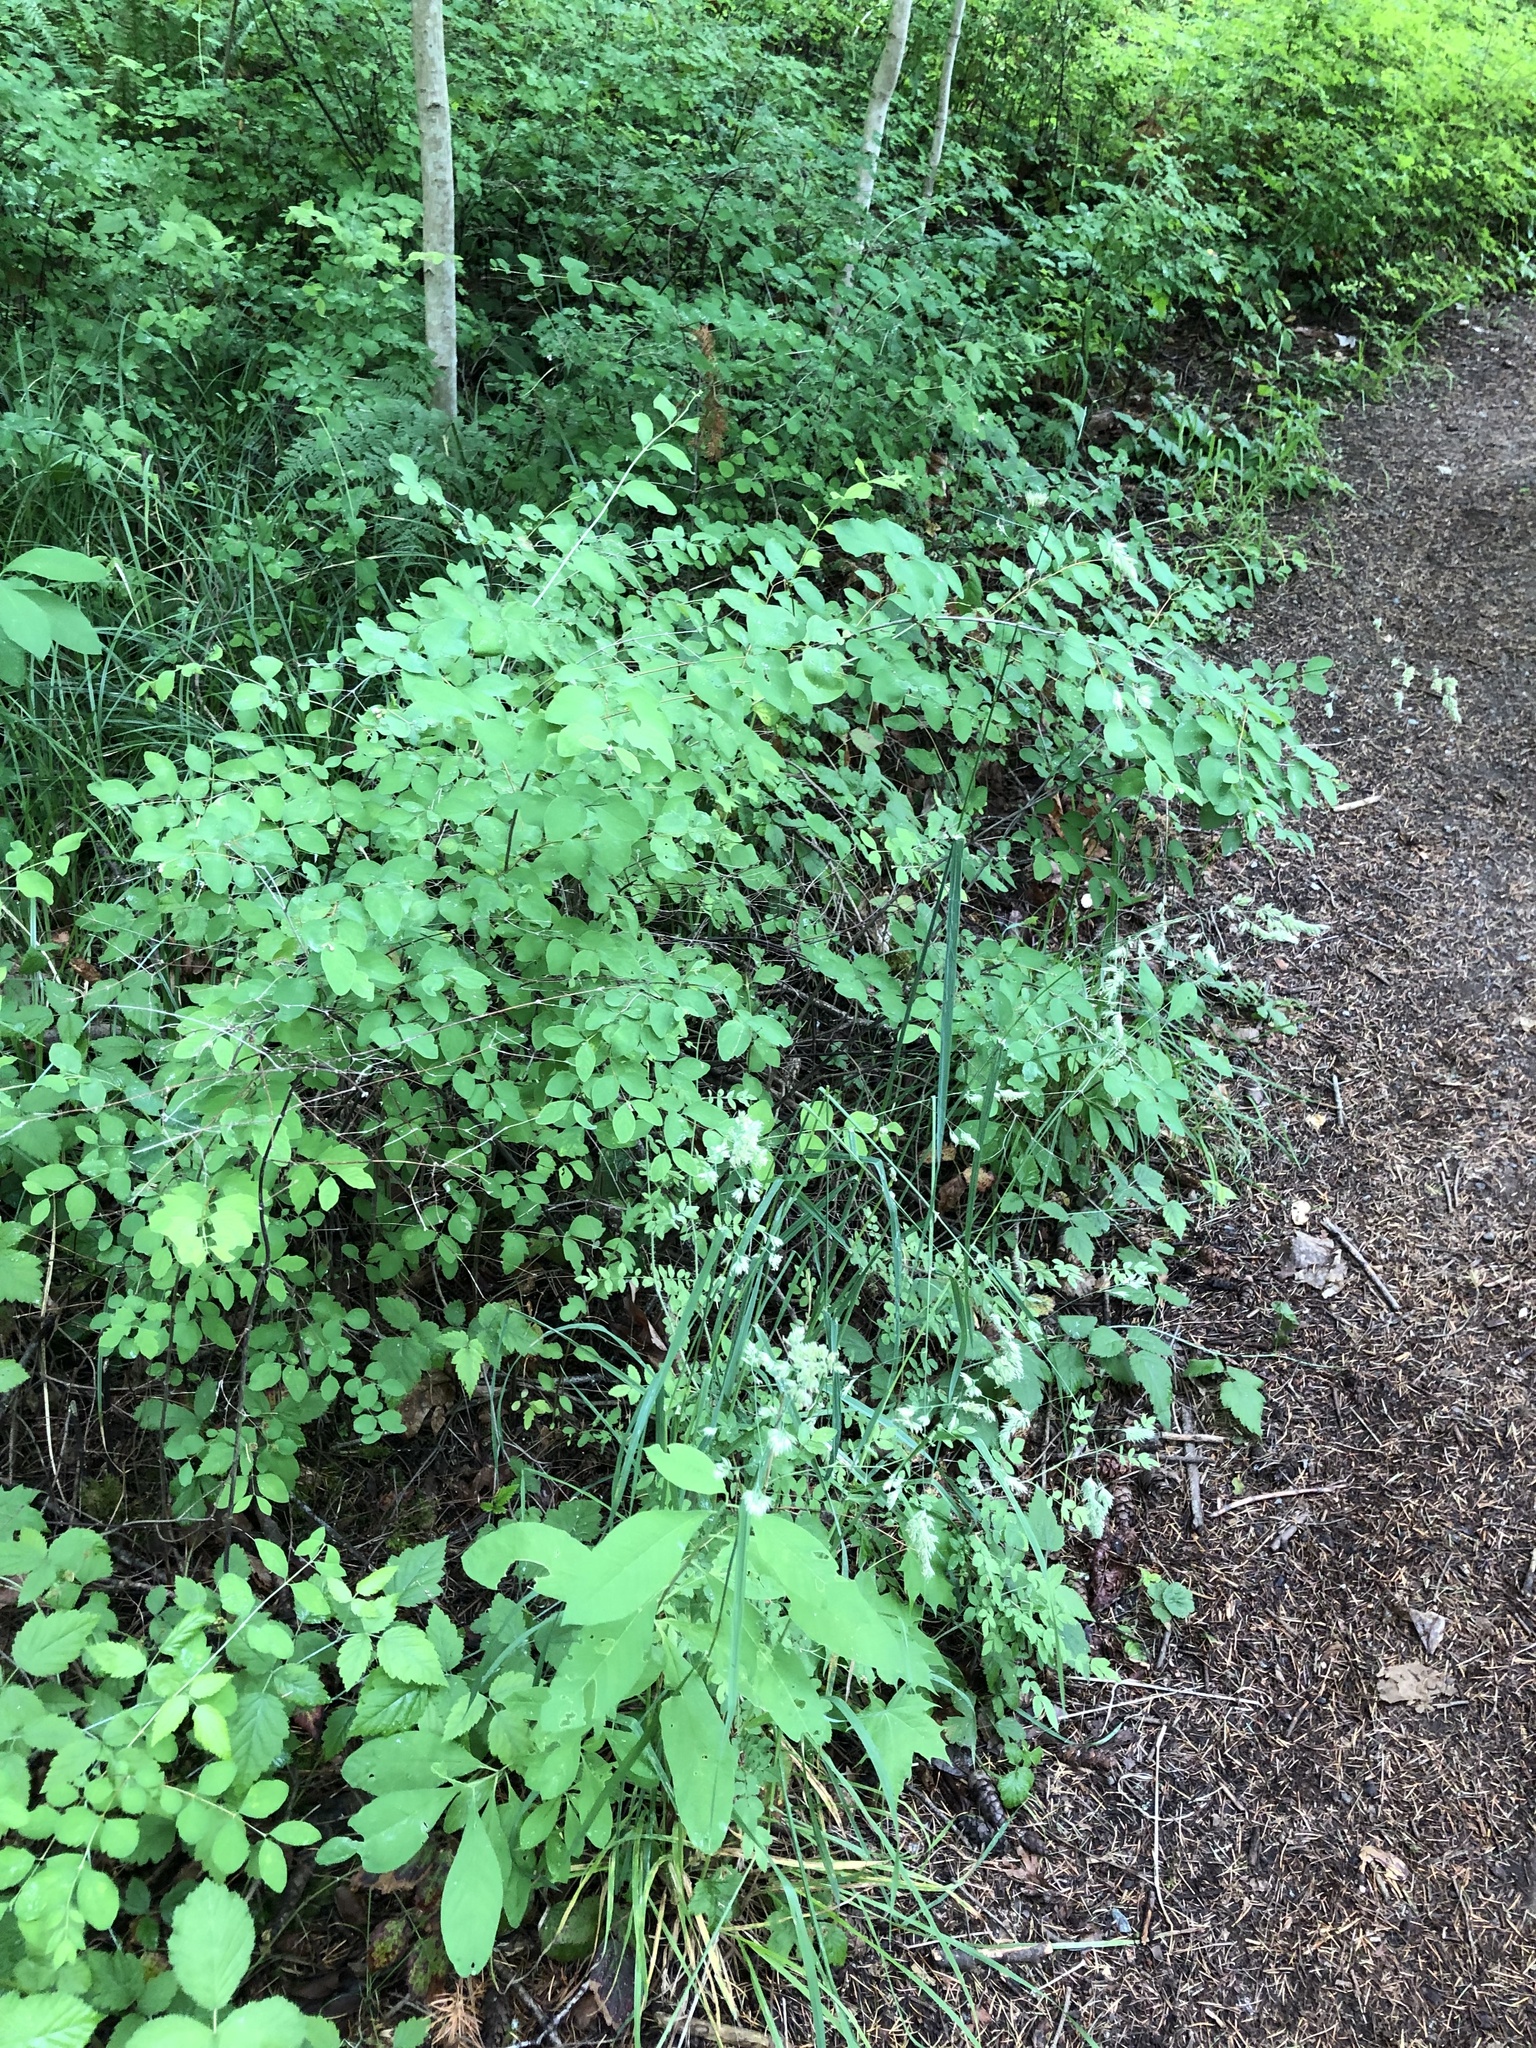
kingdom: Plantae
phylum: Tracheophyta
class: Liliopsida
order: Poales
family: Poaceae
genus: Dactylis
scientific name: Dactylis glomerata
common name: Orchardgrass
